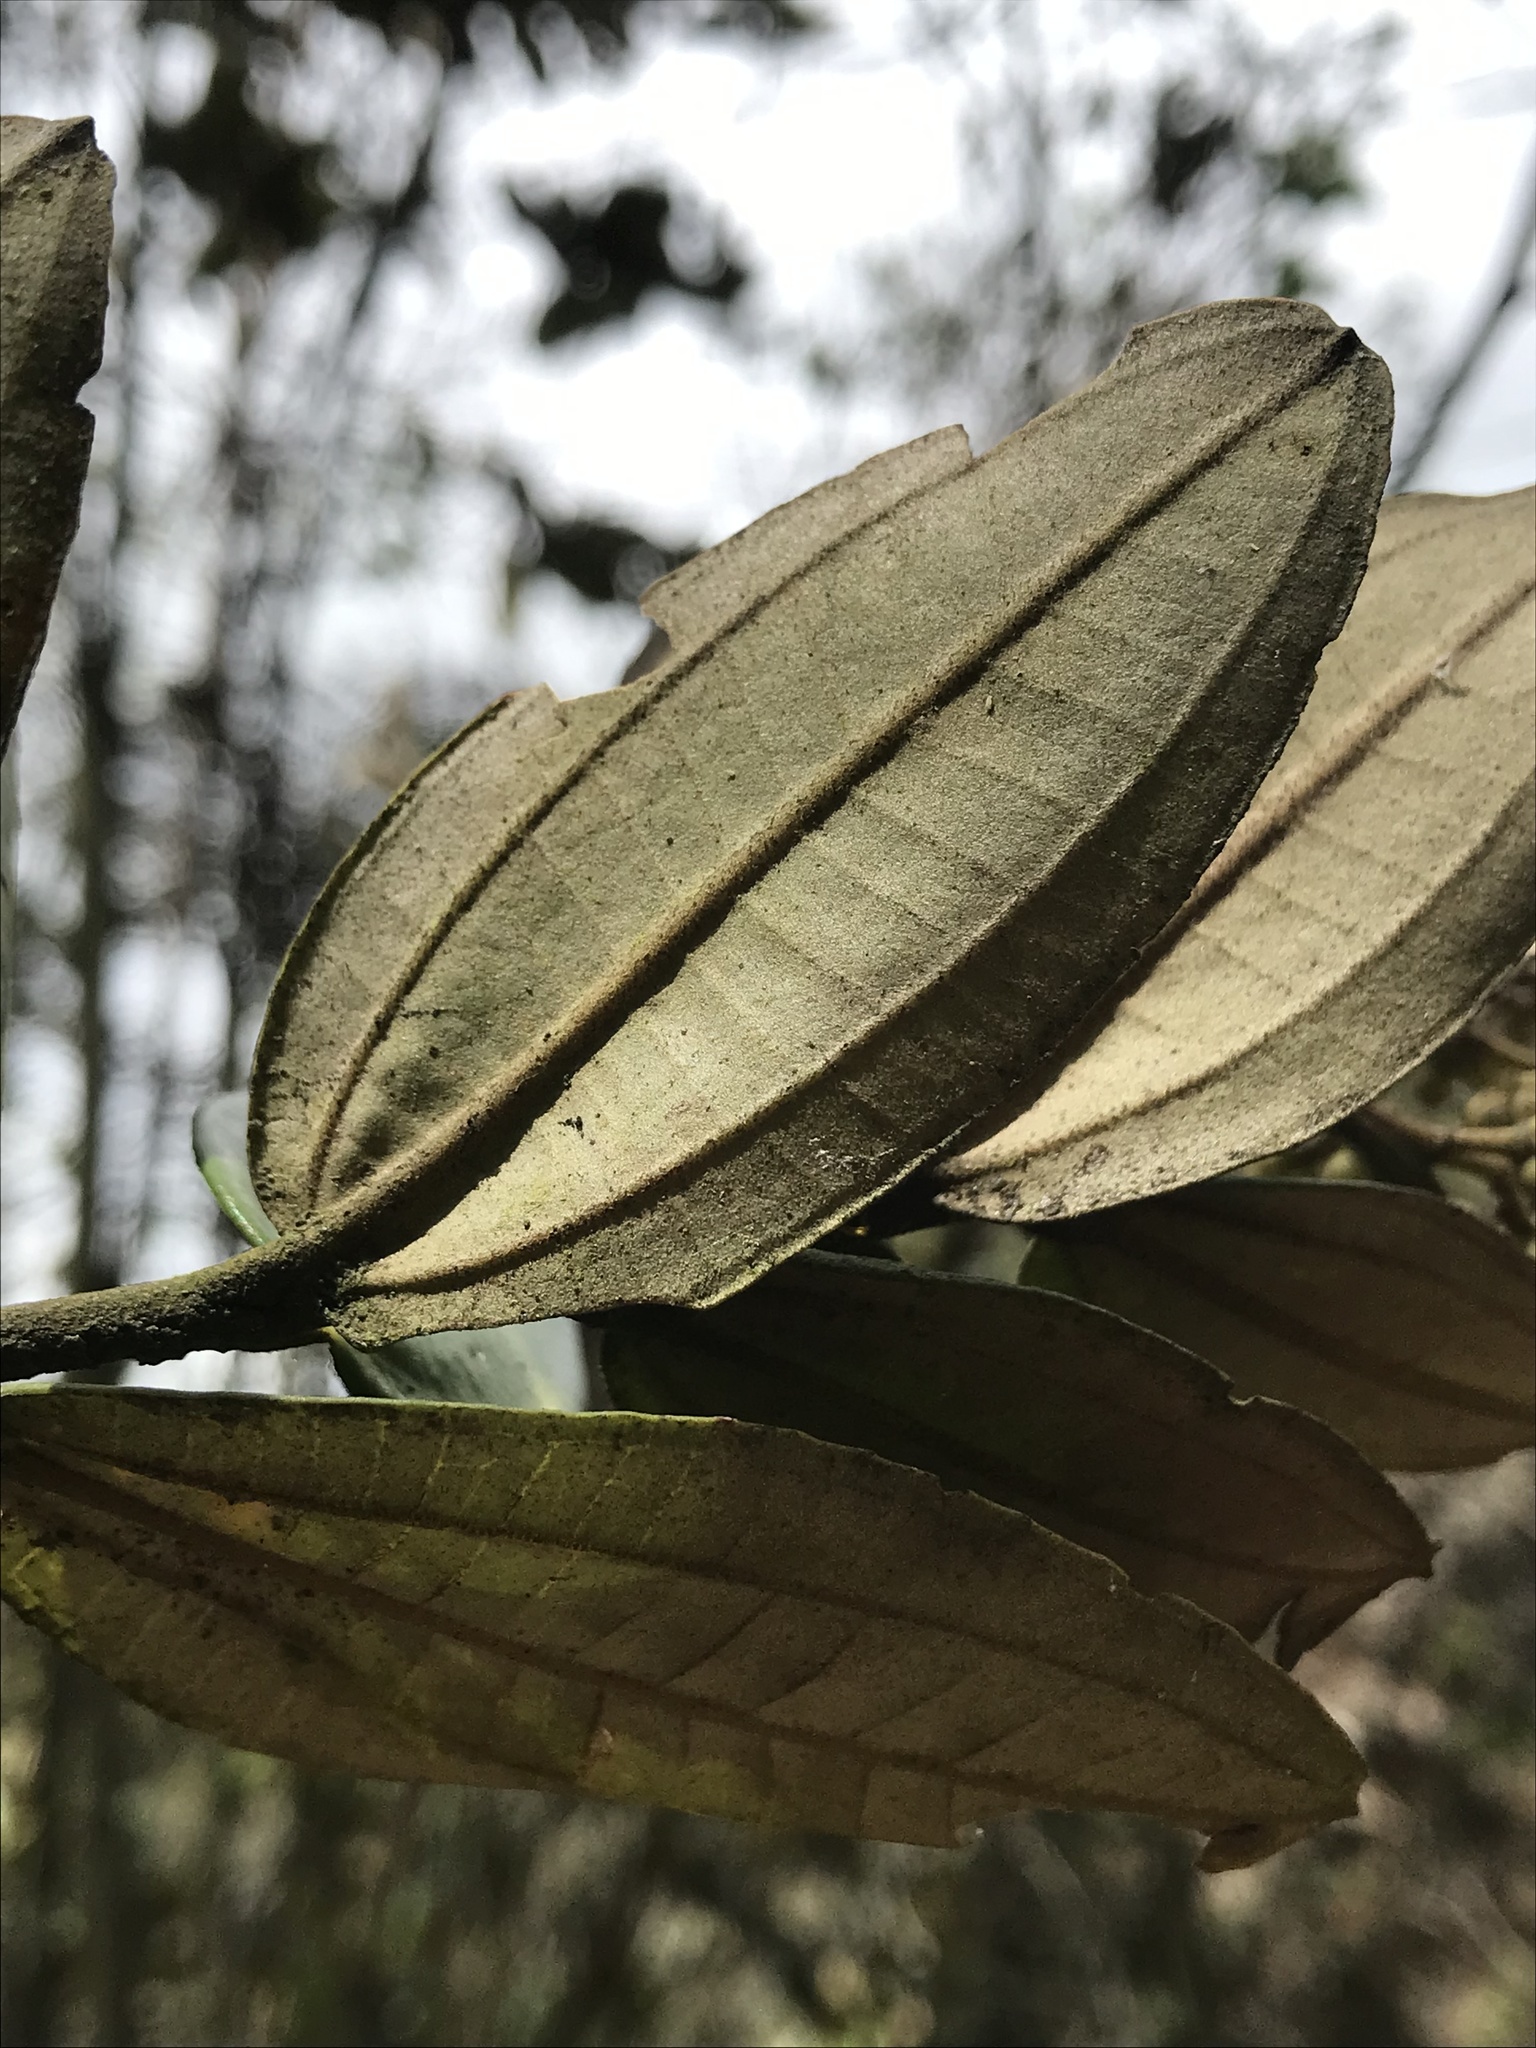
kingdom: Plantae
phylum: Tracheophyta
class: Magnoliopsida
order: Myrtales
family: Melastomataceae
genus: Miconia
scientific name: Miconia squamulosa
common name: Squamulose maya
